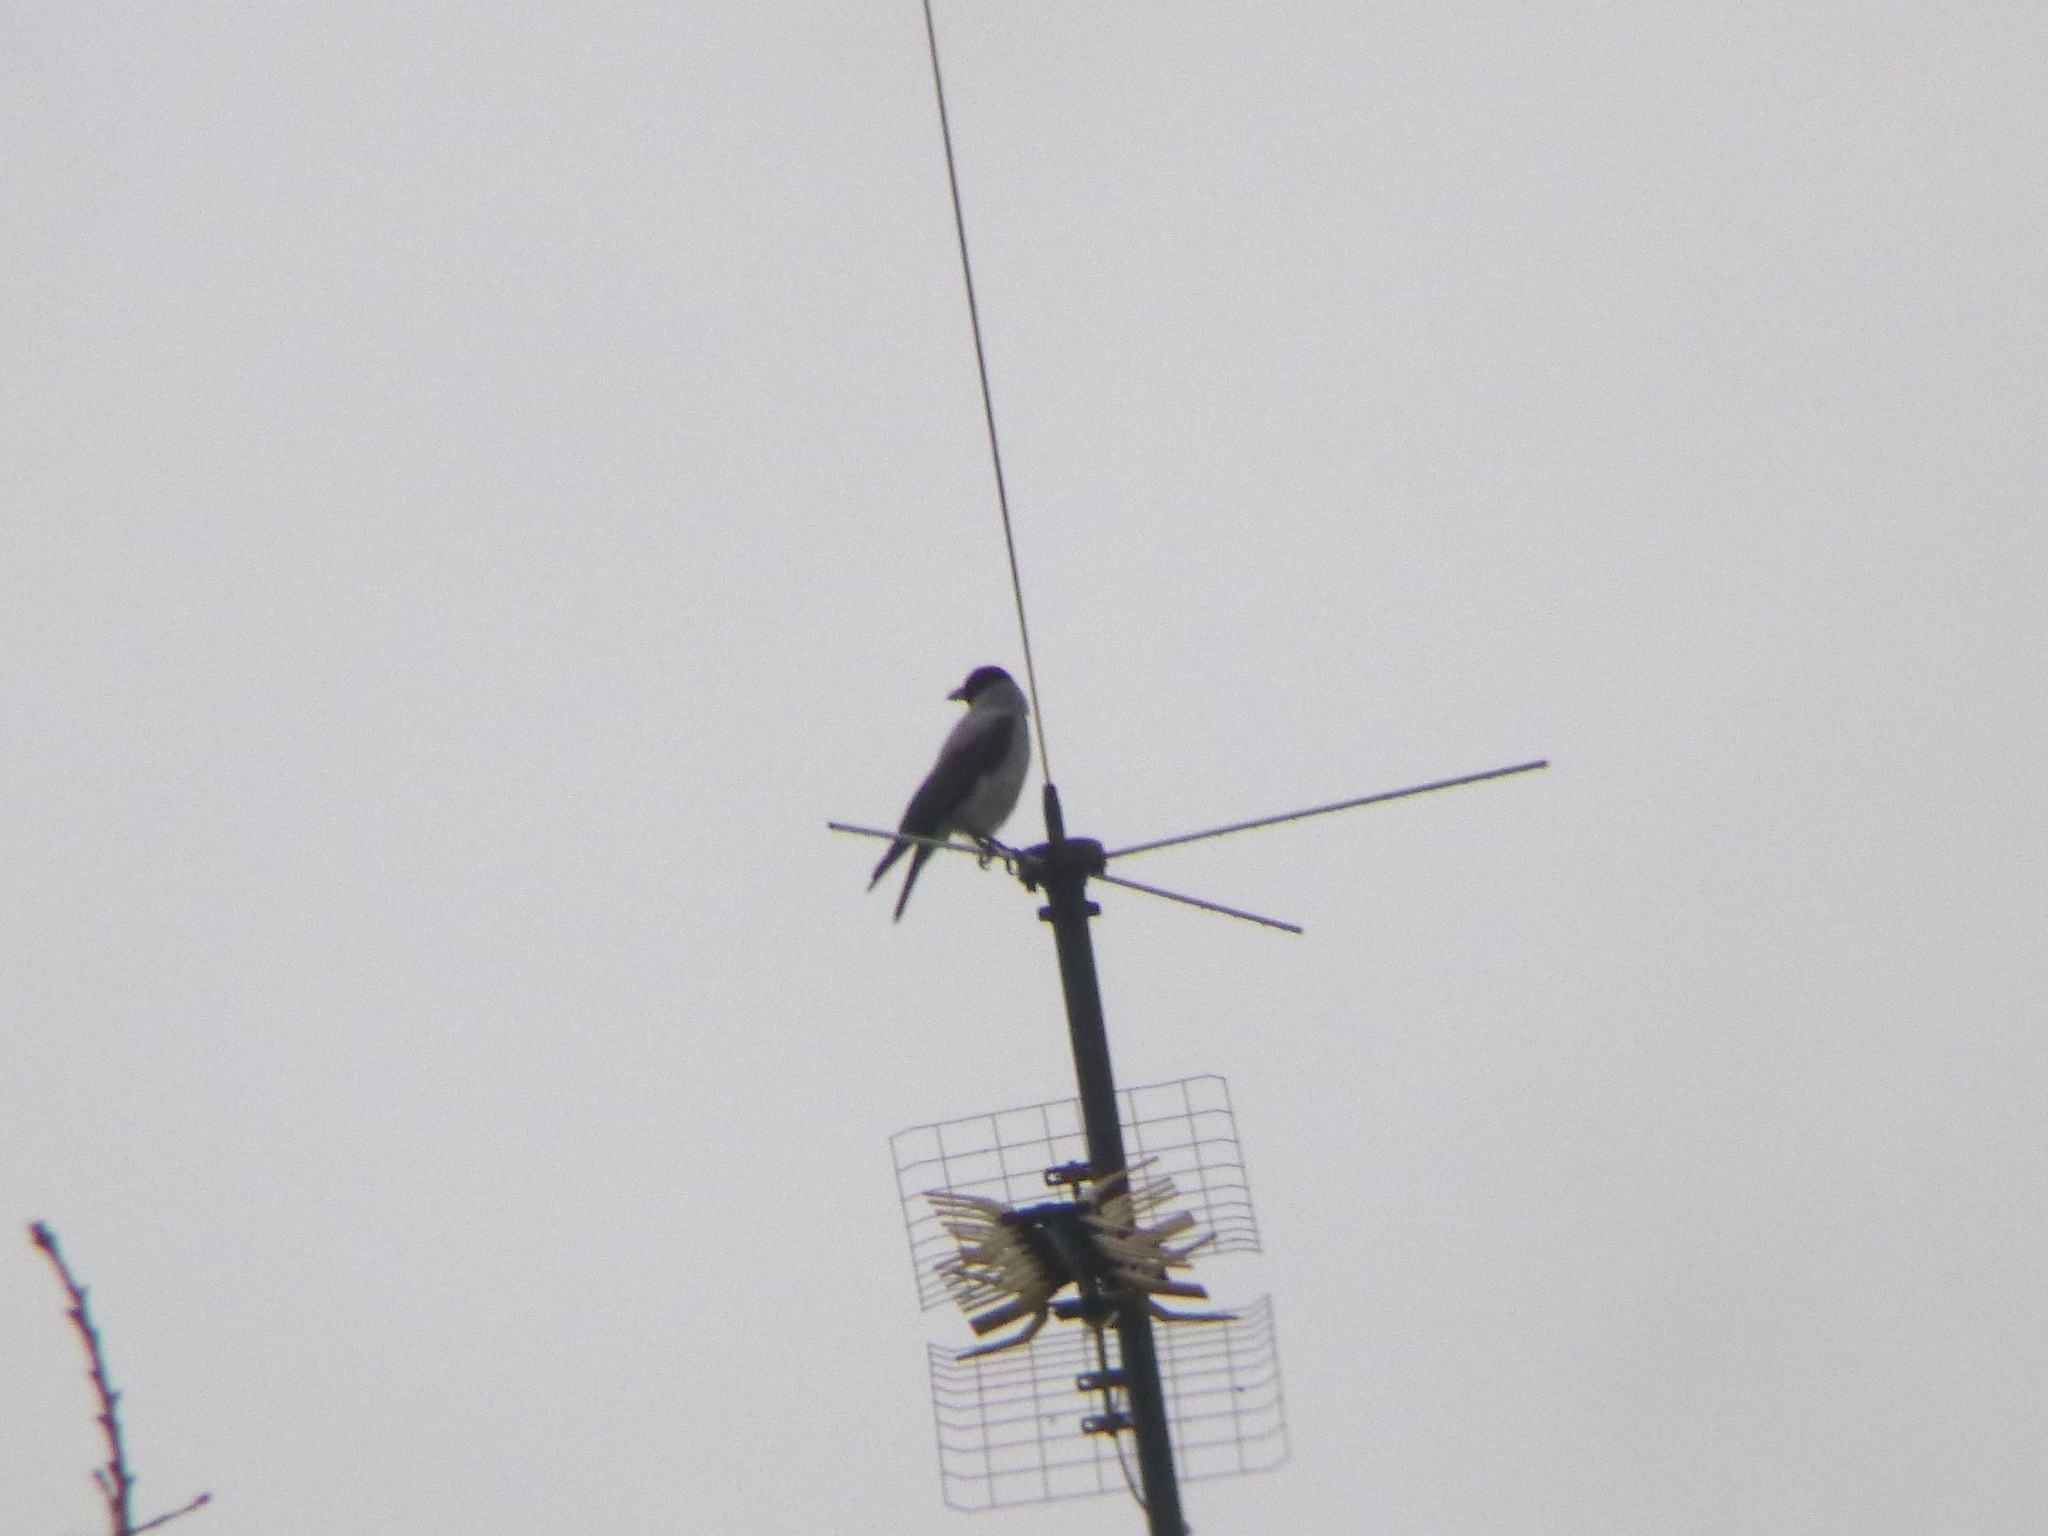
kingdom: Animalia
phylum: Chordata
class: Aves
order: Passeriformes
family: Corvidae
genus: Corvus
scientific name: Corvus cornix
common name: Hooded crow
